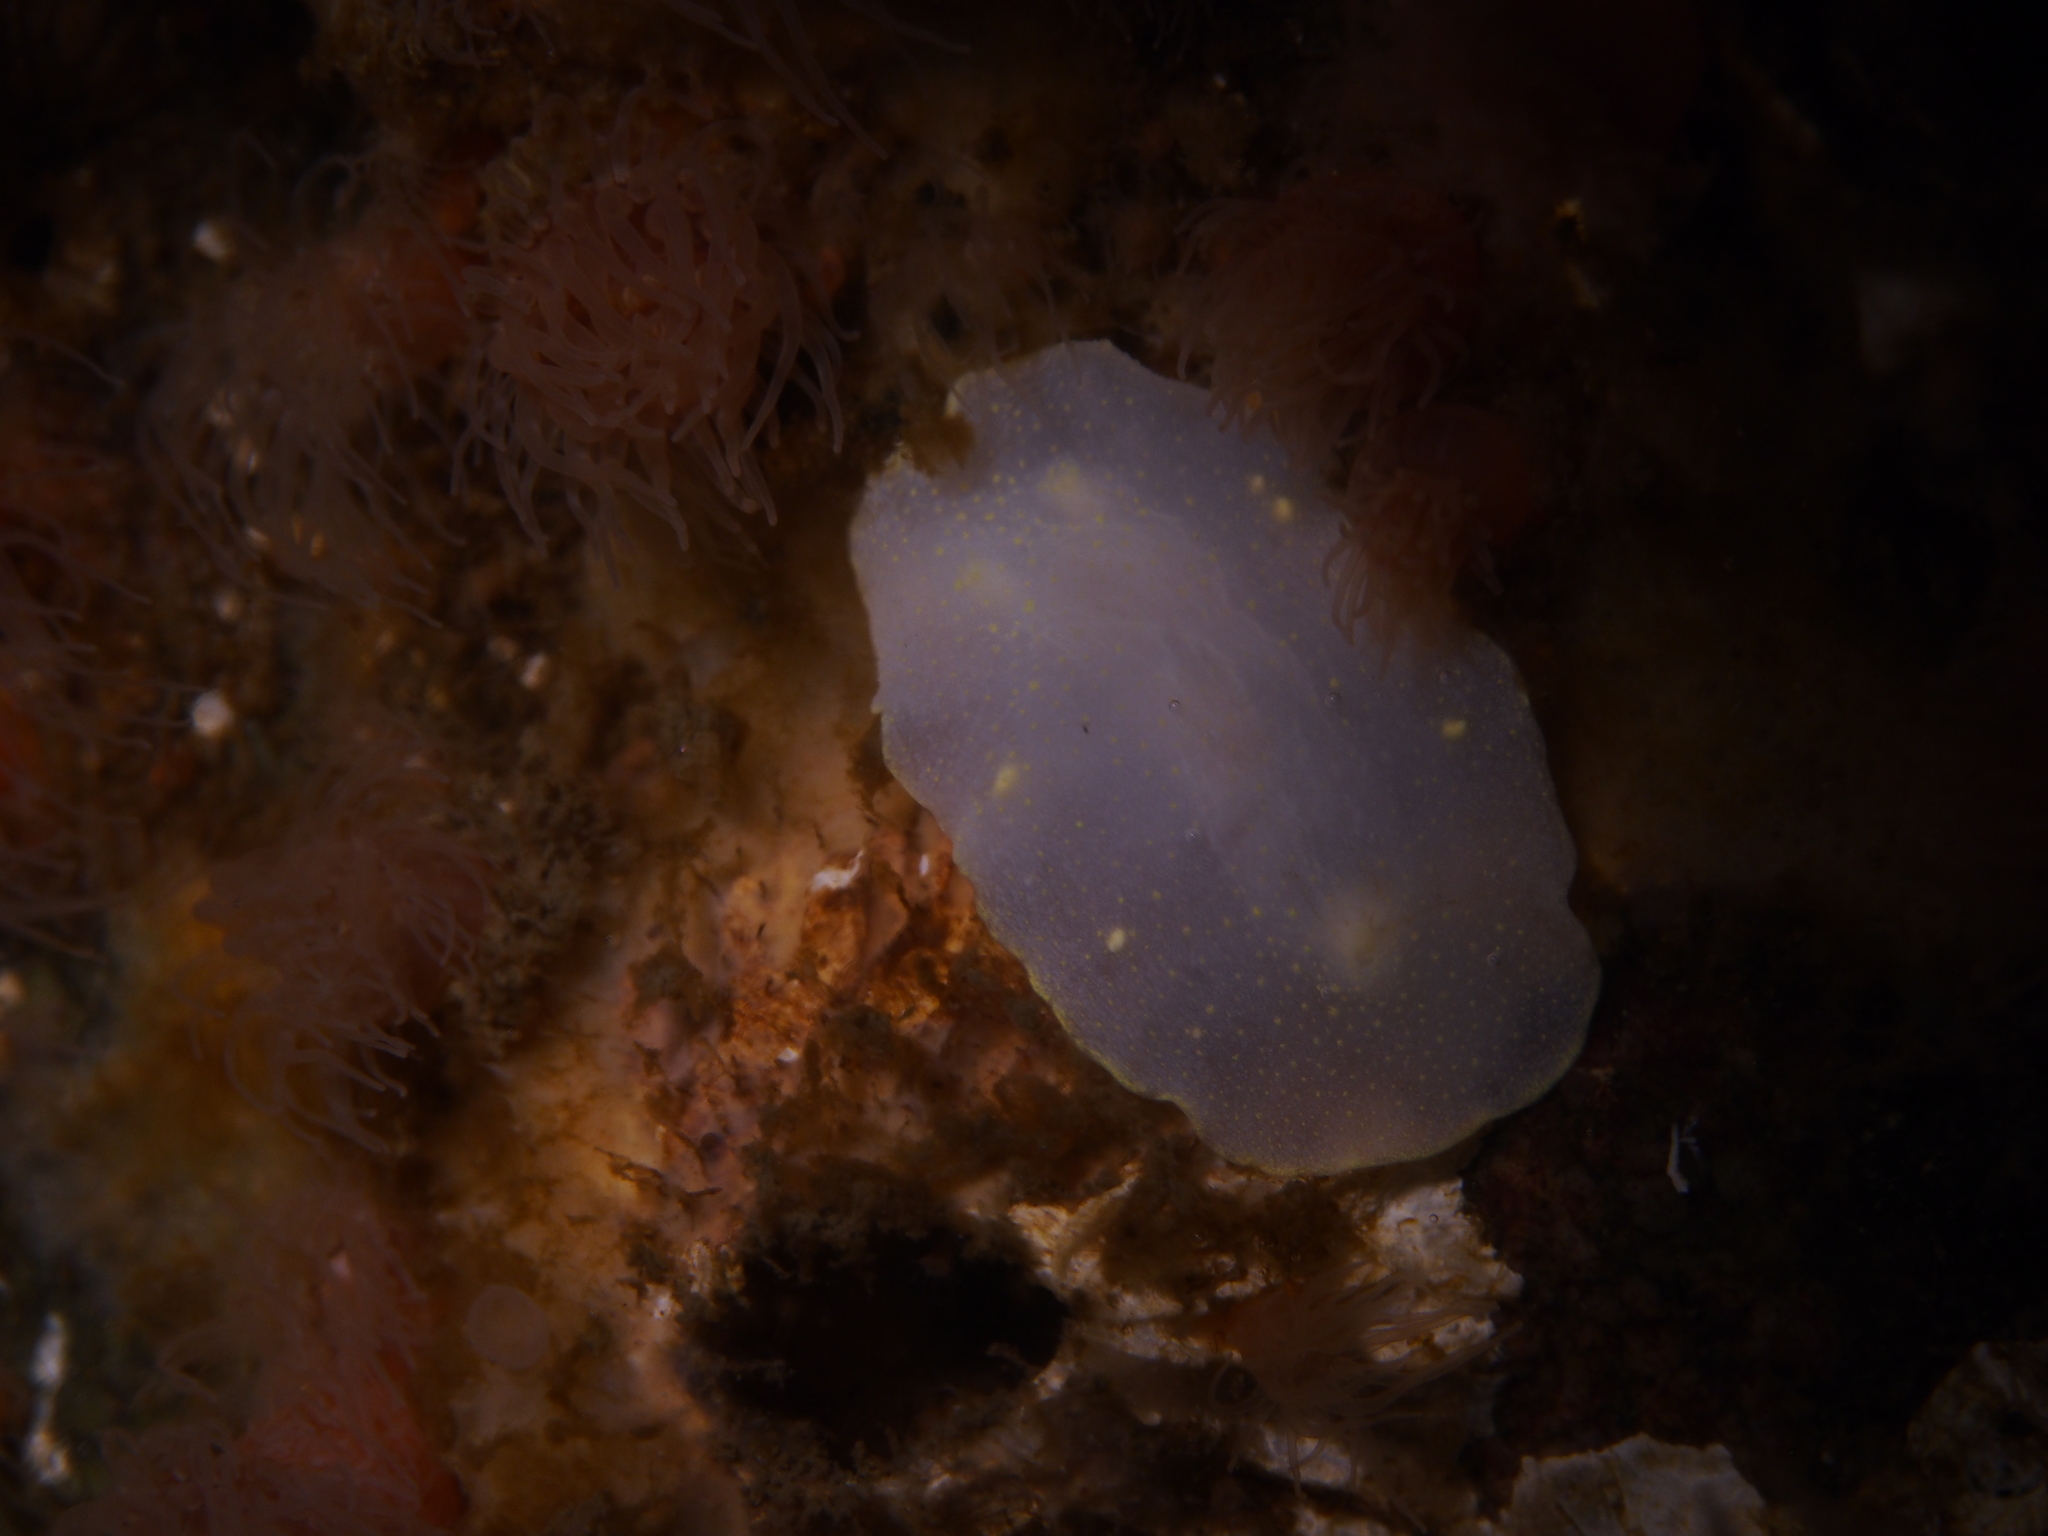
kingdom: Animalia
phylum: Mollusca
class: Gastropoda
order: Nudibranchia
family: Cadlinidae
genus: Cadlina
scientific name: Cadlina laevis
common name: White atlantic cadlina
